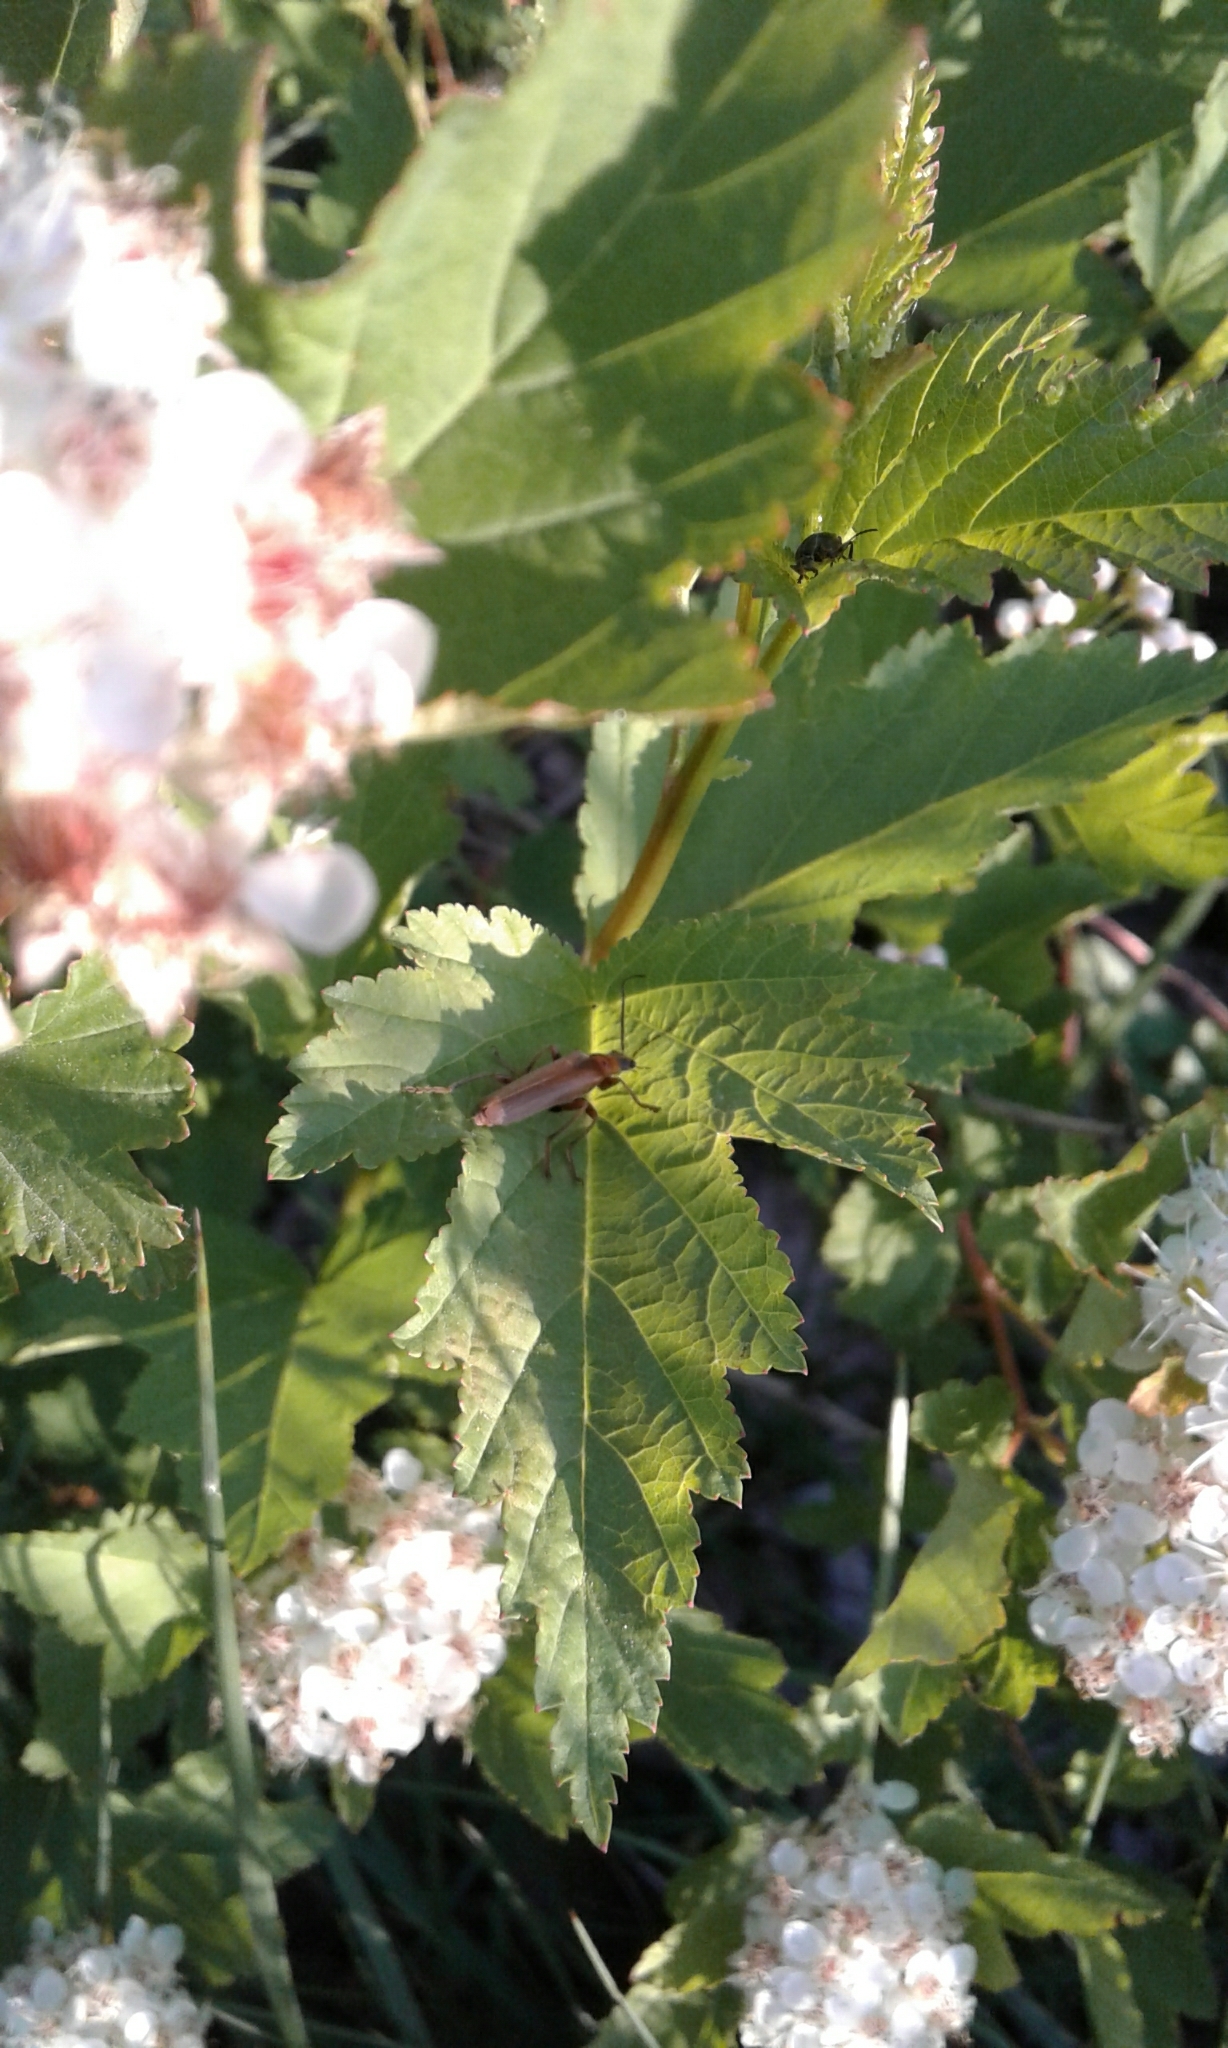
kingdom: Animalia
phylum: Arthropoda
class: Insecta
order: Coleoptera
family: Cantharidae
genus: Cantharis
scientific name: Cantharis rufa
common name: Red-spotted soldier beetle
